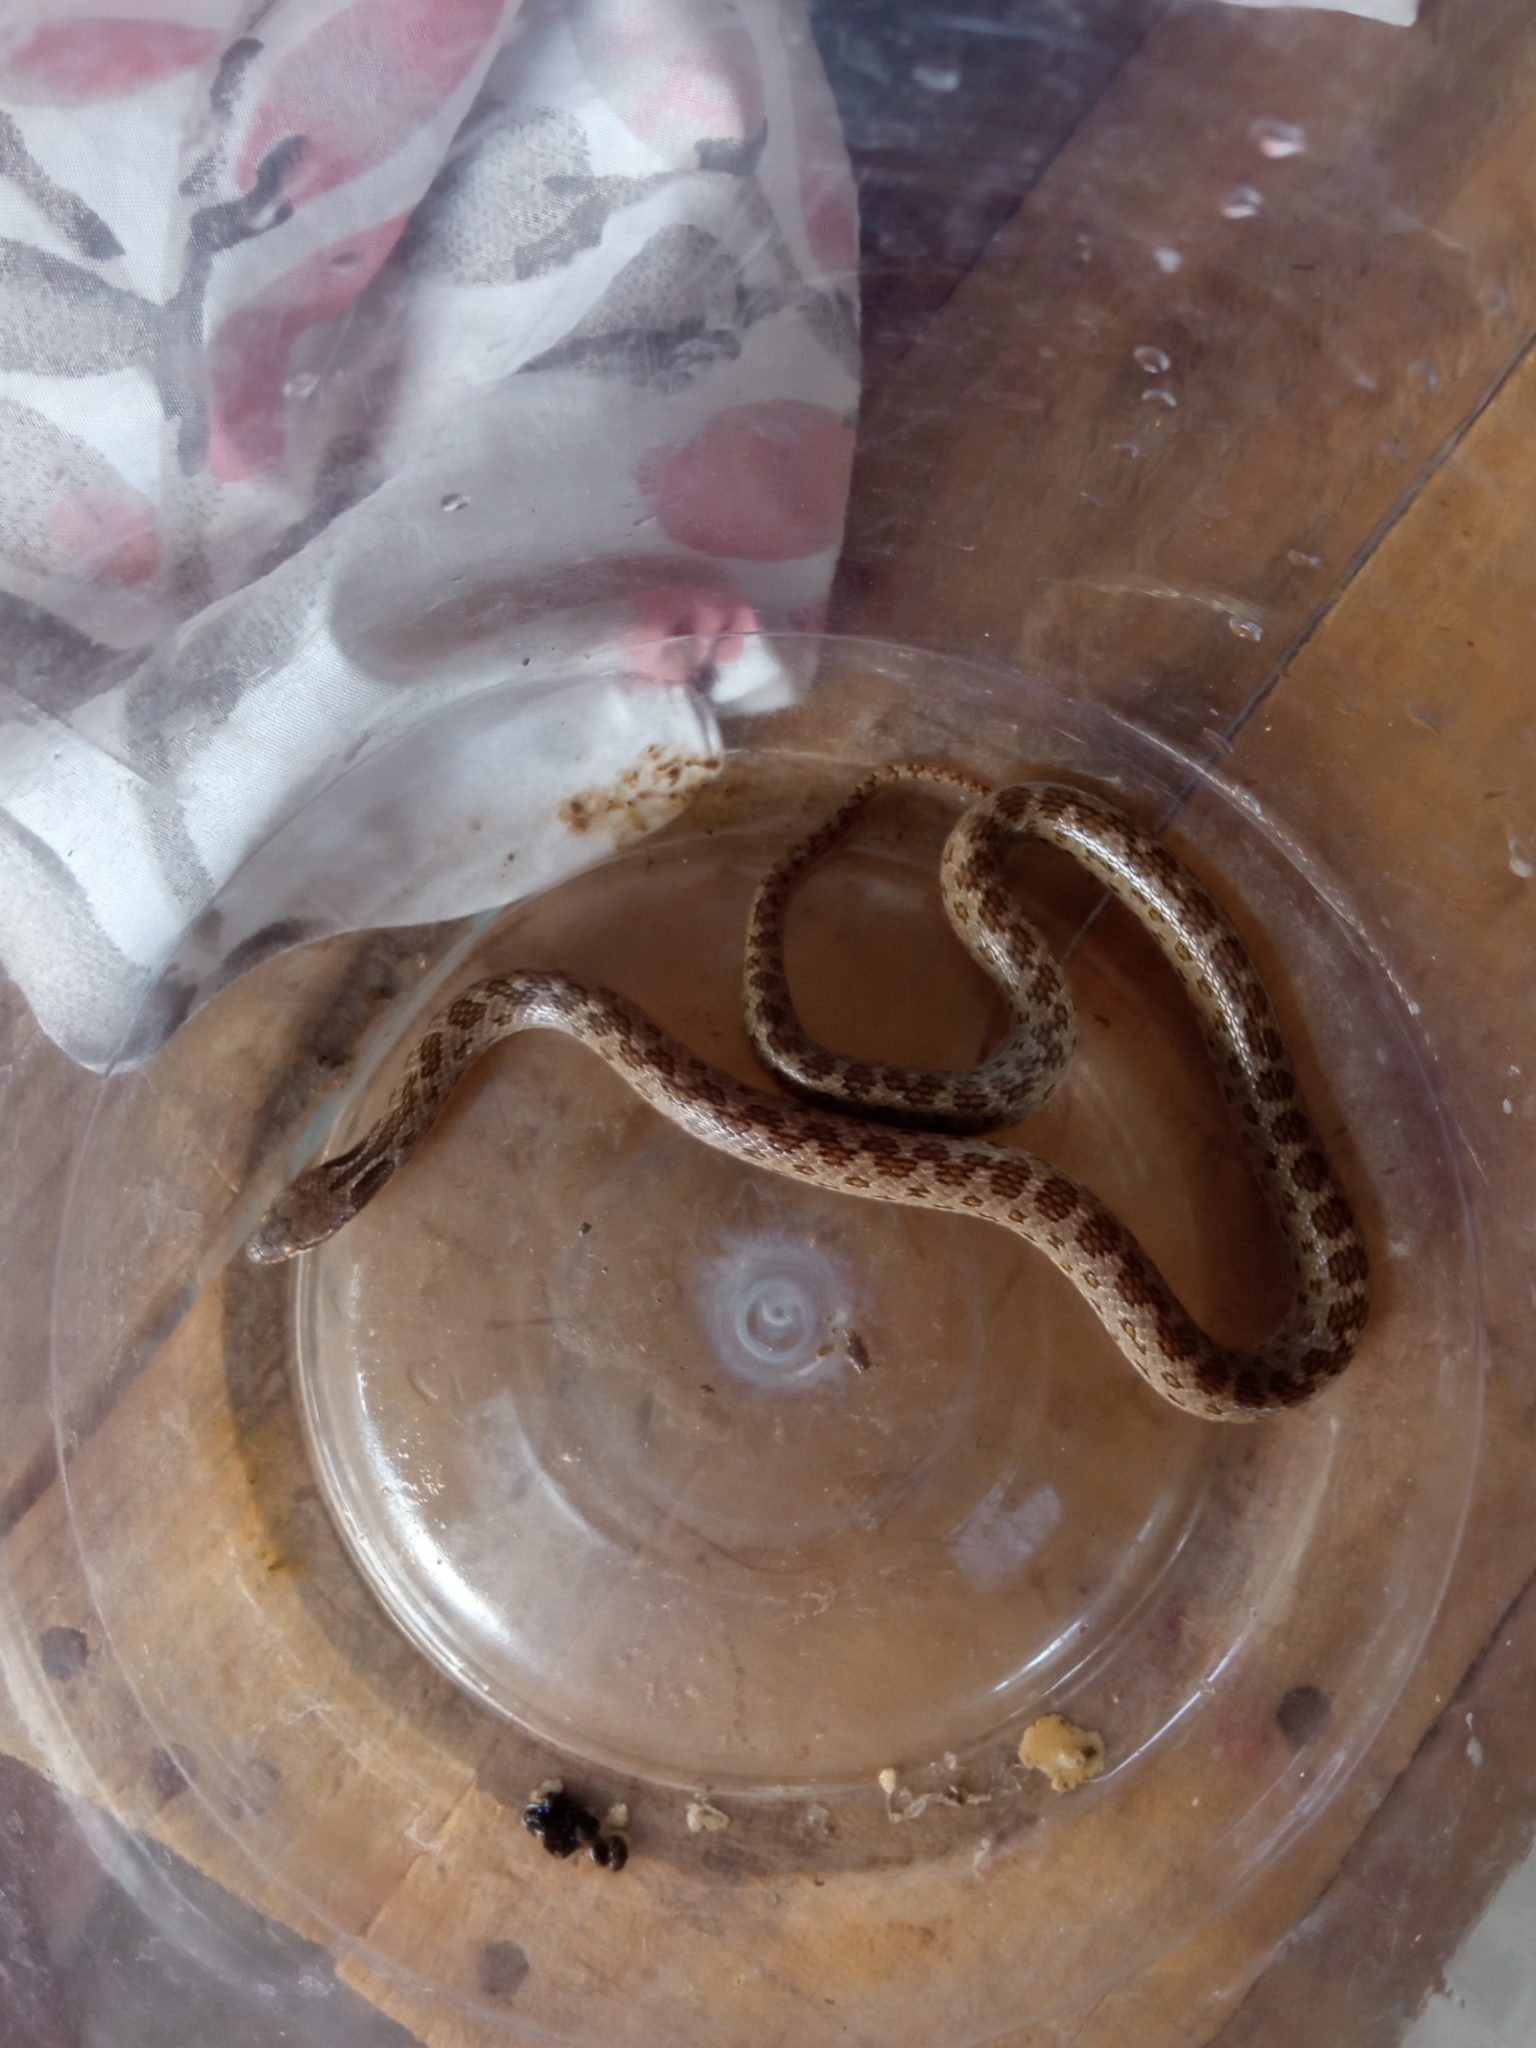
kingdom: Animalia
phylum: Chordata
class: Squamata
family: Colubridae
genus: Hypsiglena
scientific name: Hypsiglena chlorophaea
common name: Desert nightsnake
